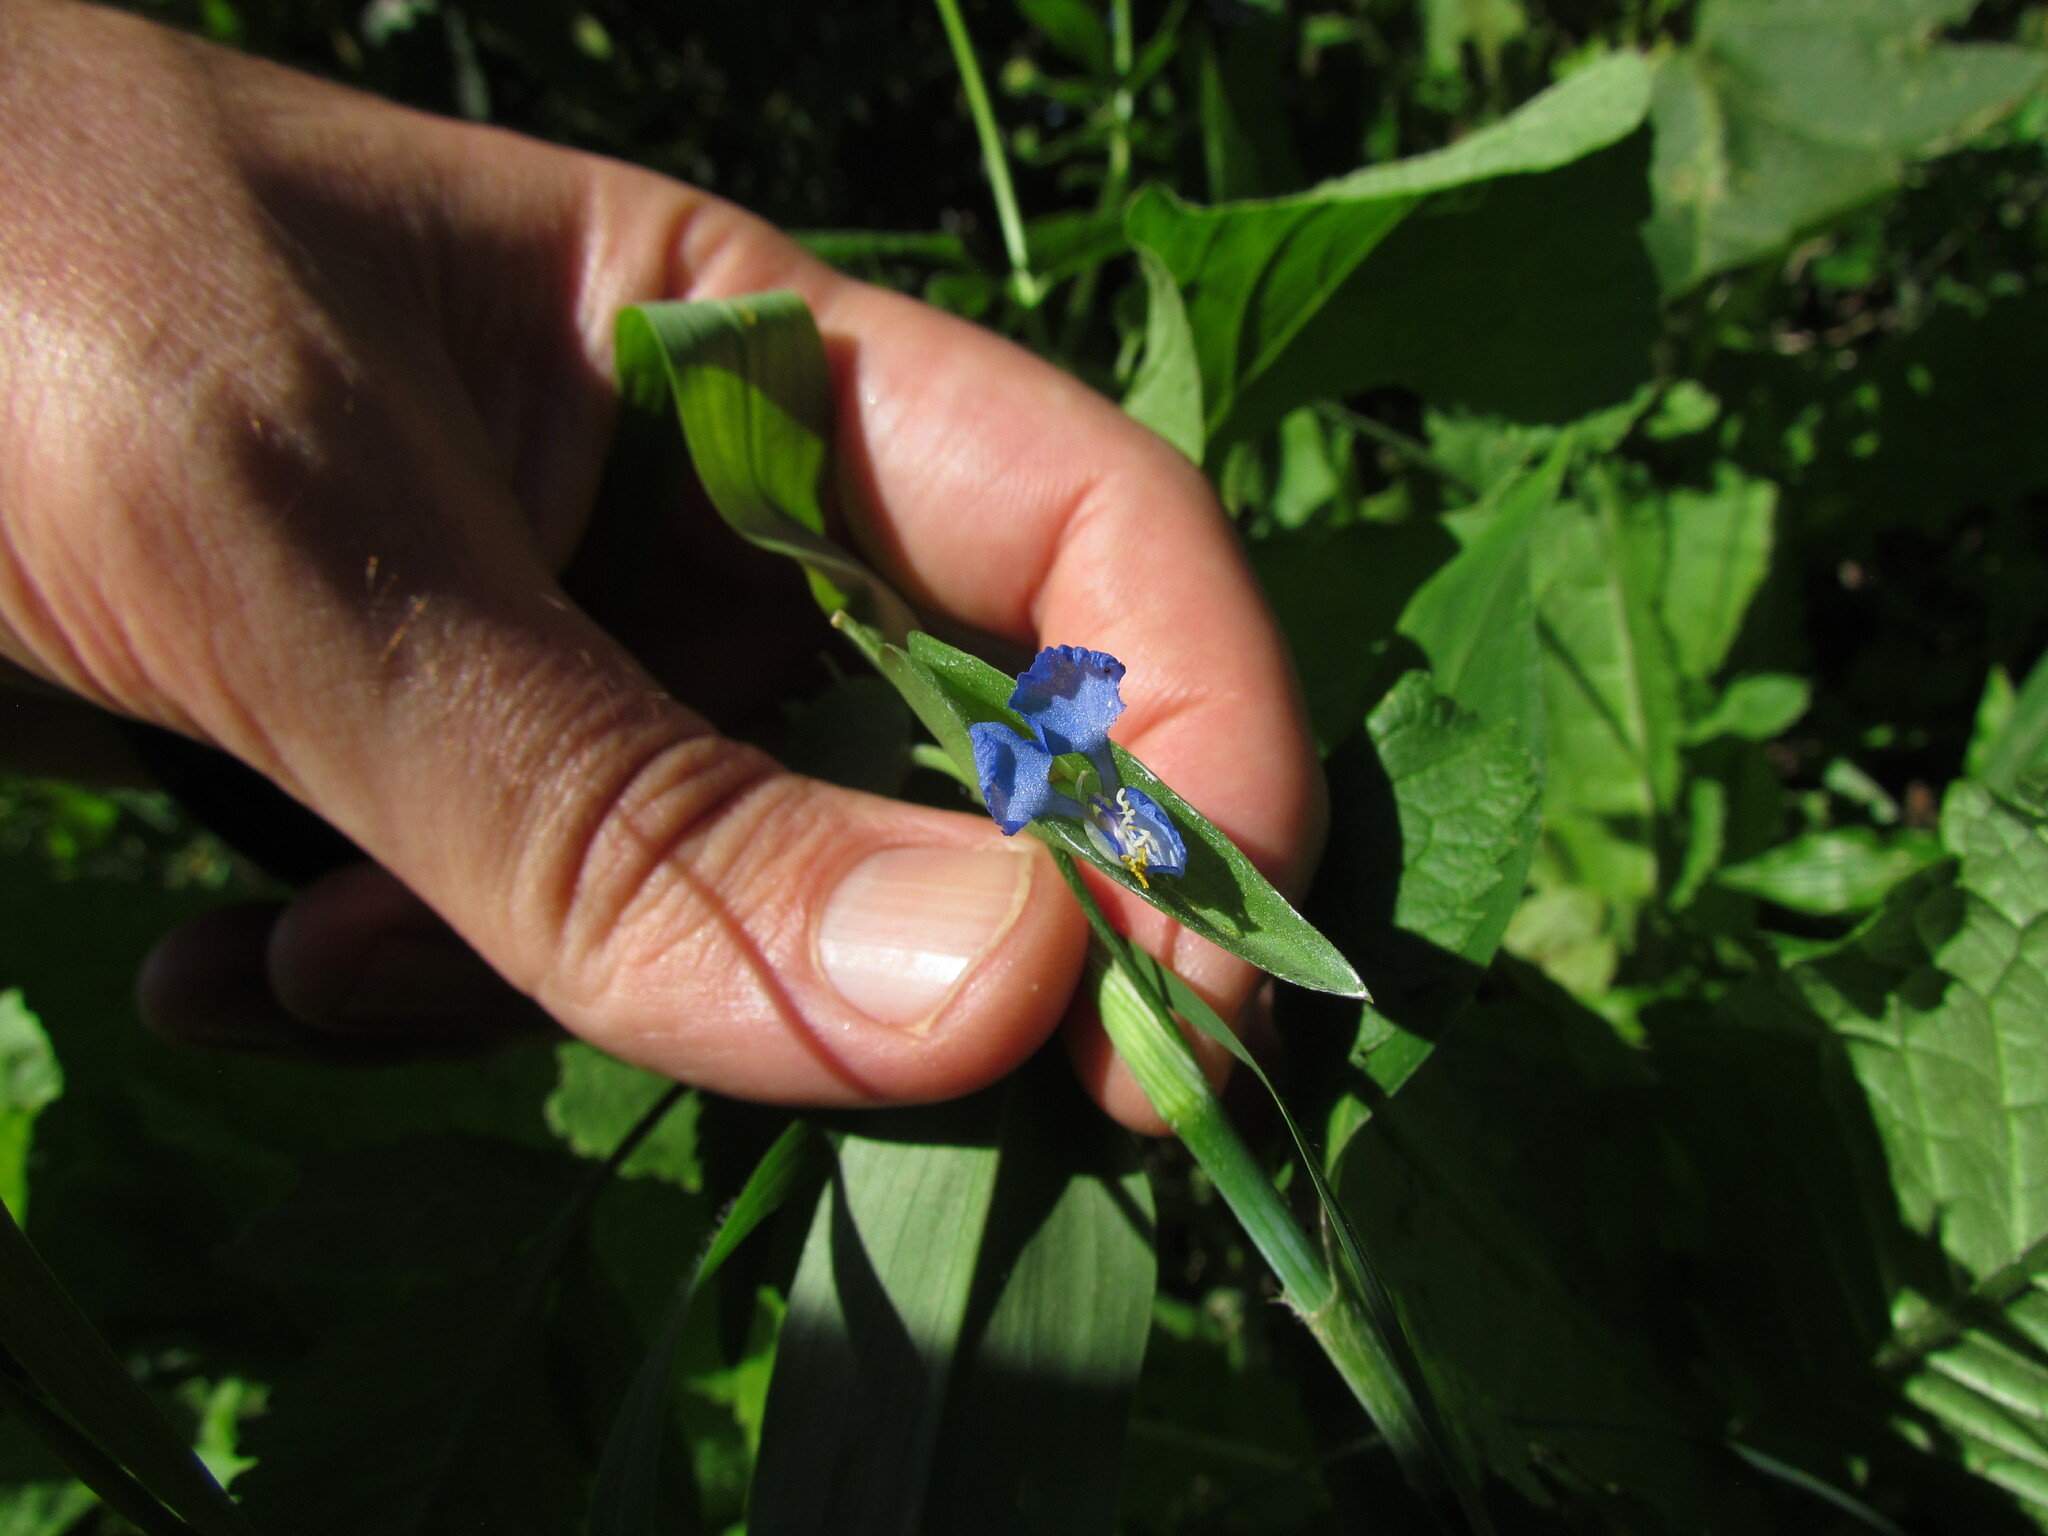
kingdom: Plantae
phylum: Tracheophyta
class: Liliopsida
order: Commelinales
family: Commelinaceae
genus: Commelina
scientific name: Commelina diffusa
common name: Climbing dayflower
